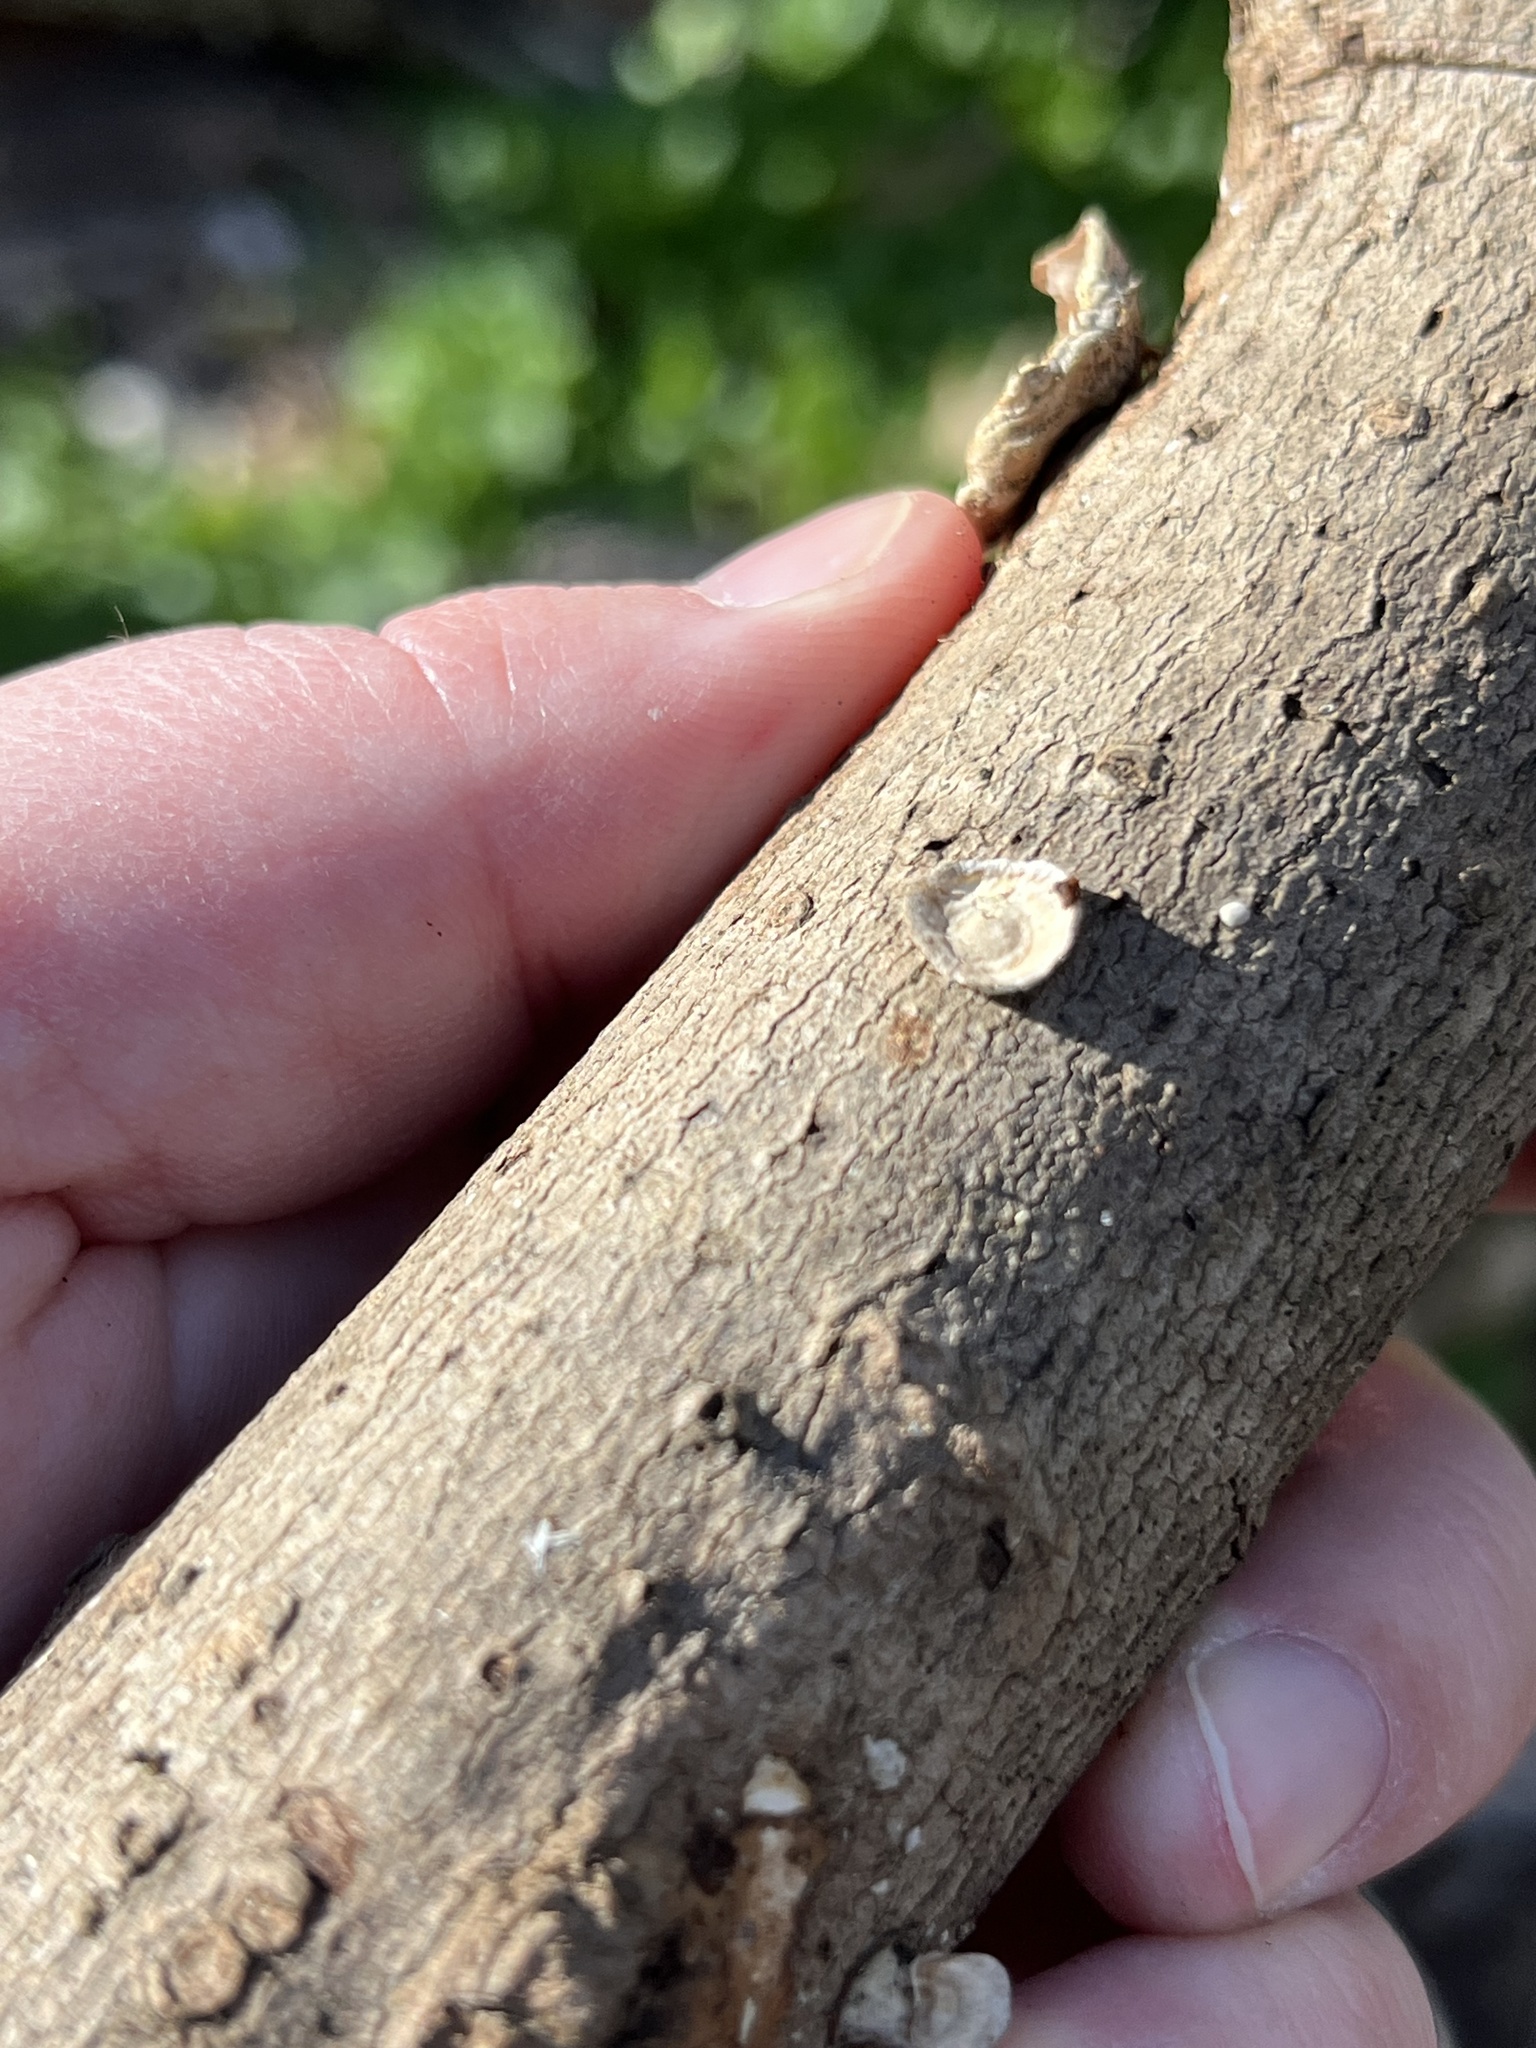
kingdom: Fungi
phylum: Basidiomycota
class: Agaricomycetes
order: Polyporales
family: Polyporaceae
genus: Poronidulus
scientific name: Poronidulus conchifer
